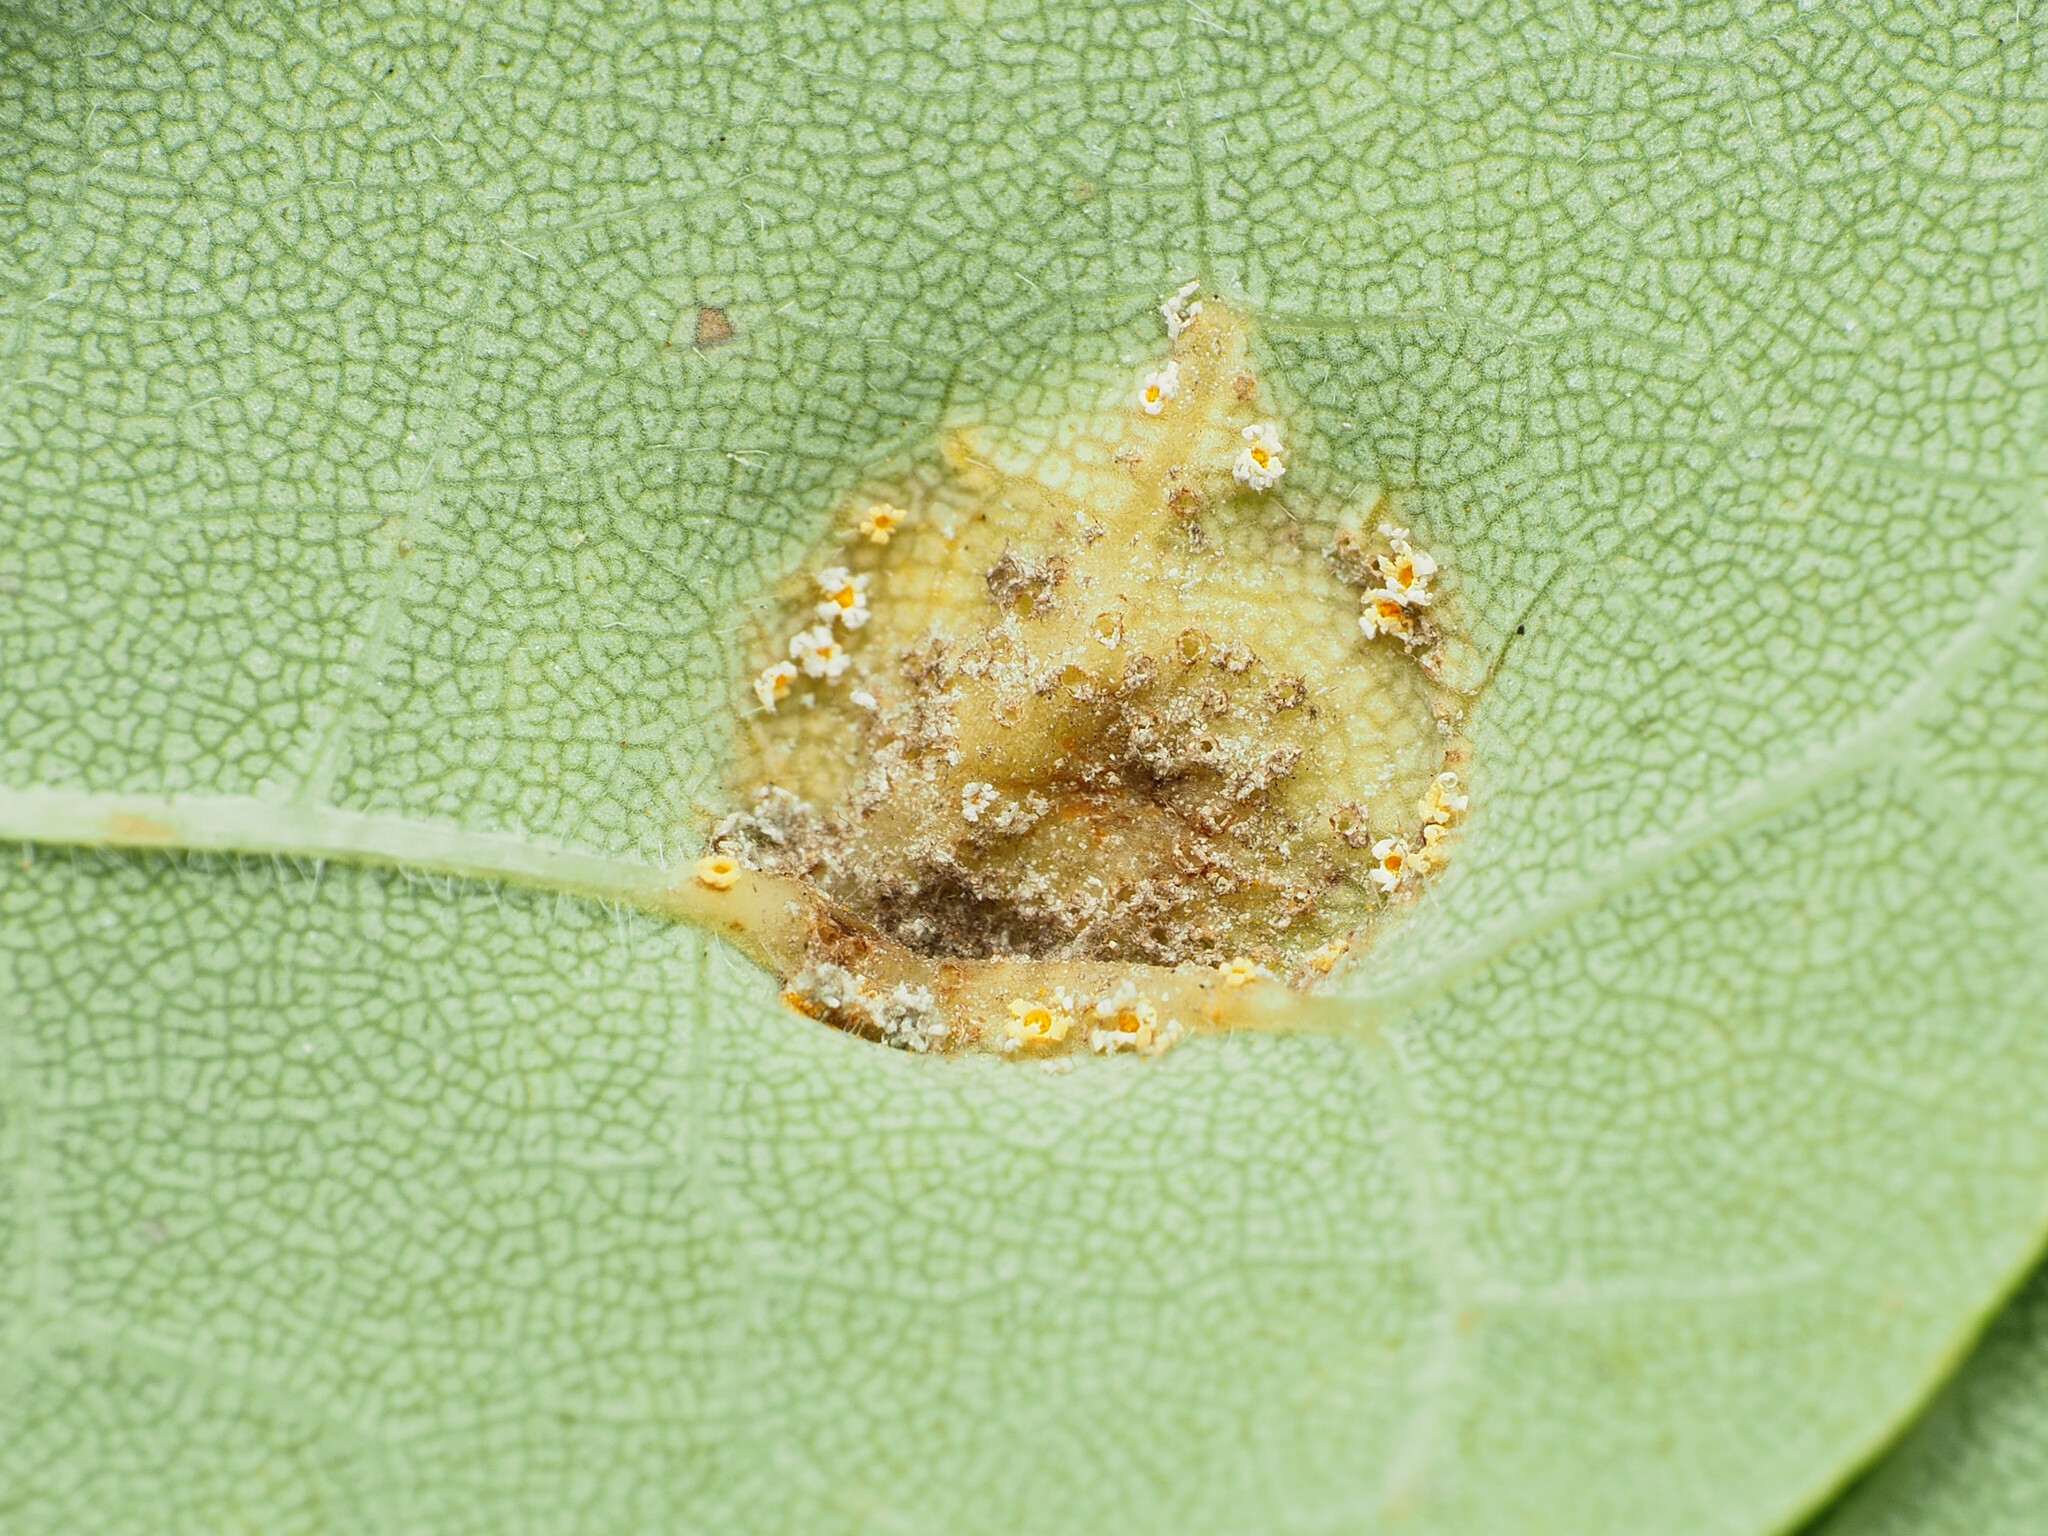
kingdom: Fungi
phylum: Basidiomycota
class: Pucciniomycetes
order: Pucciniales
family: Pucciniaceae
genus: Puccinia
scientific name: Puccinia sparganioidis
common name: Ash rust
